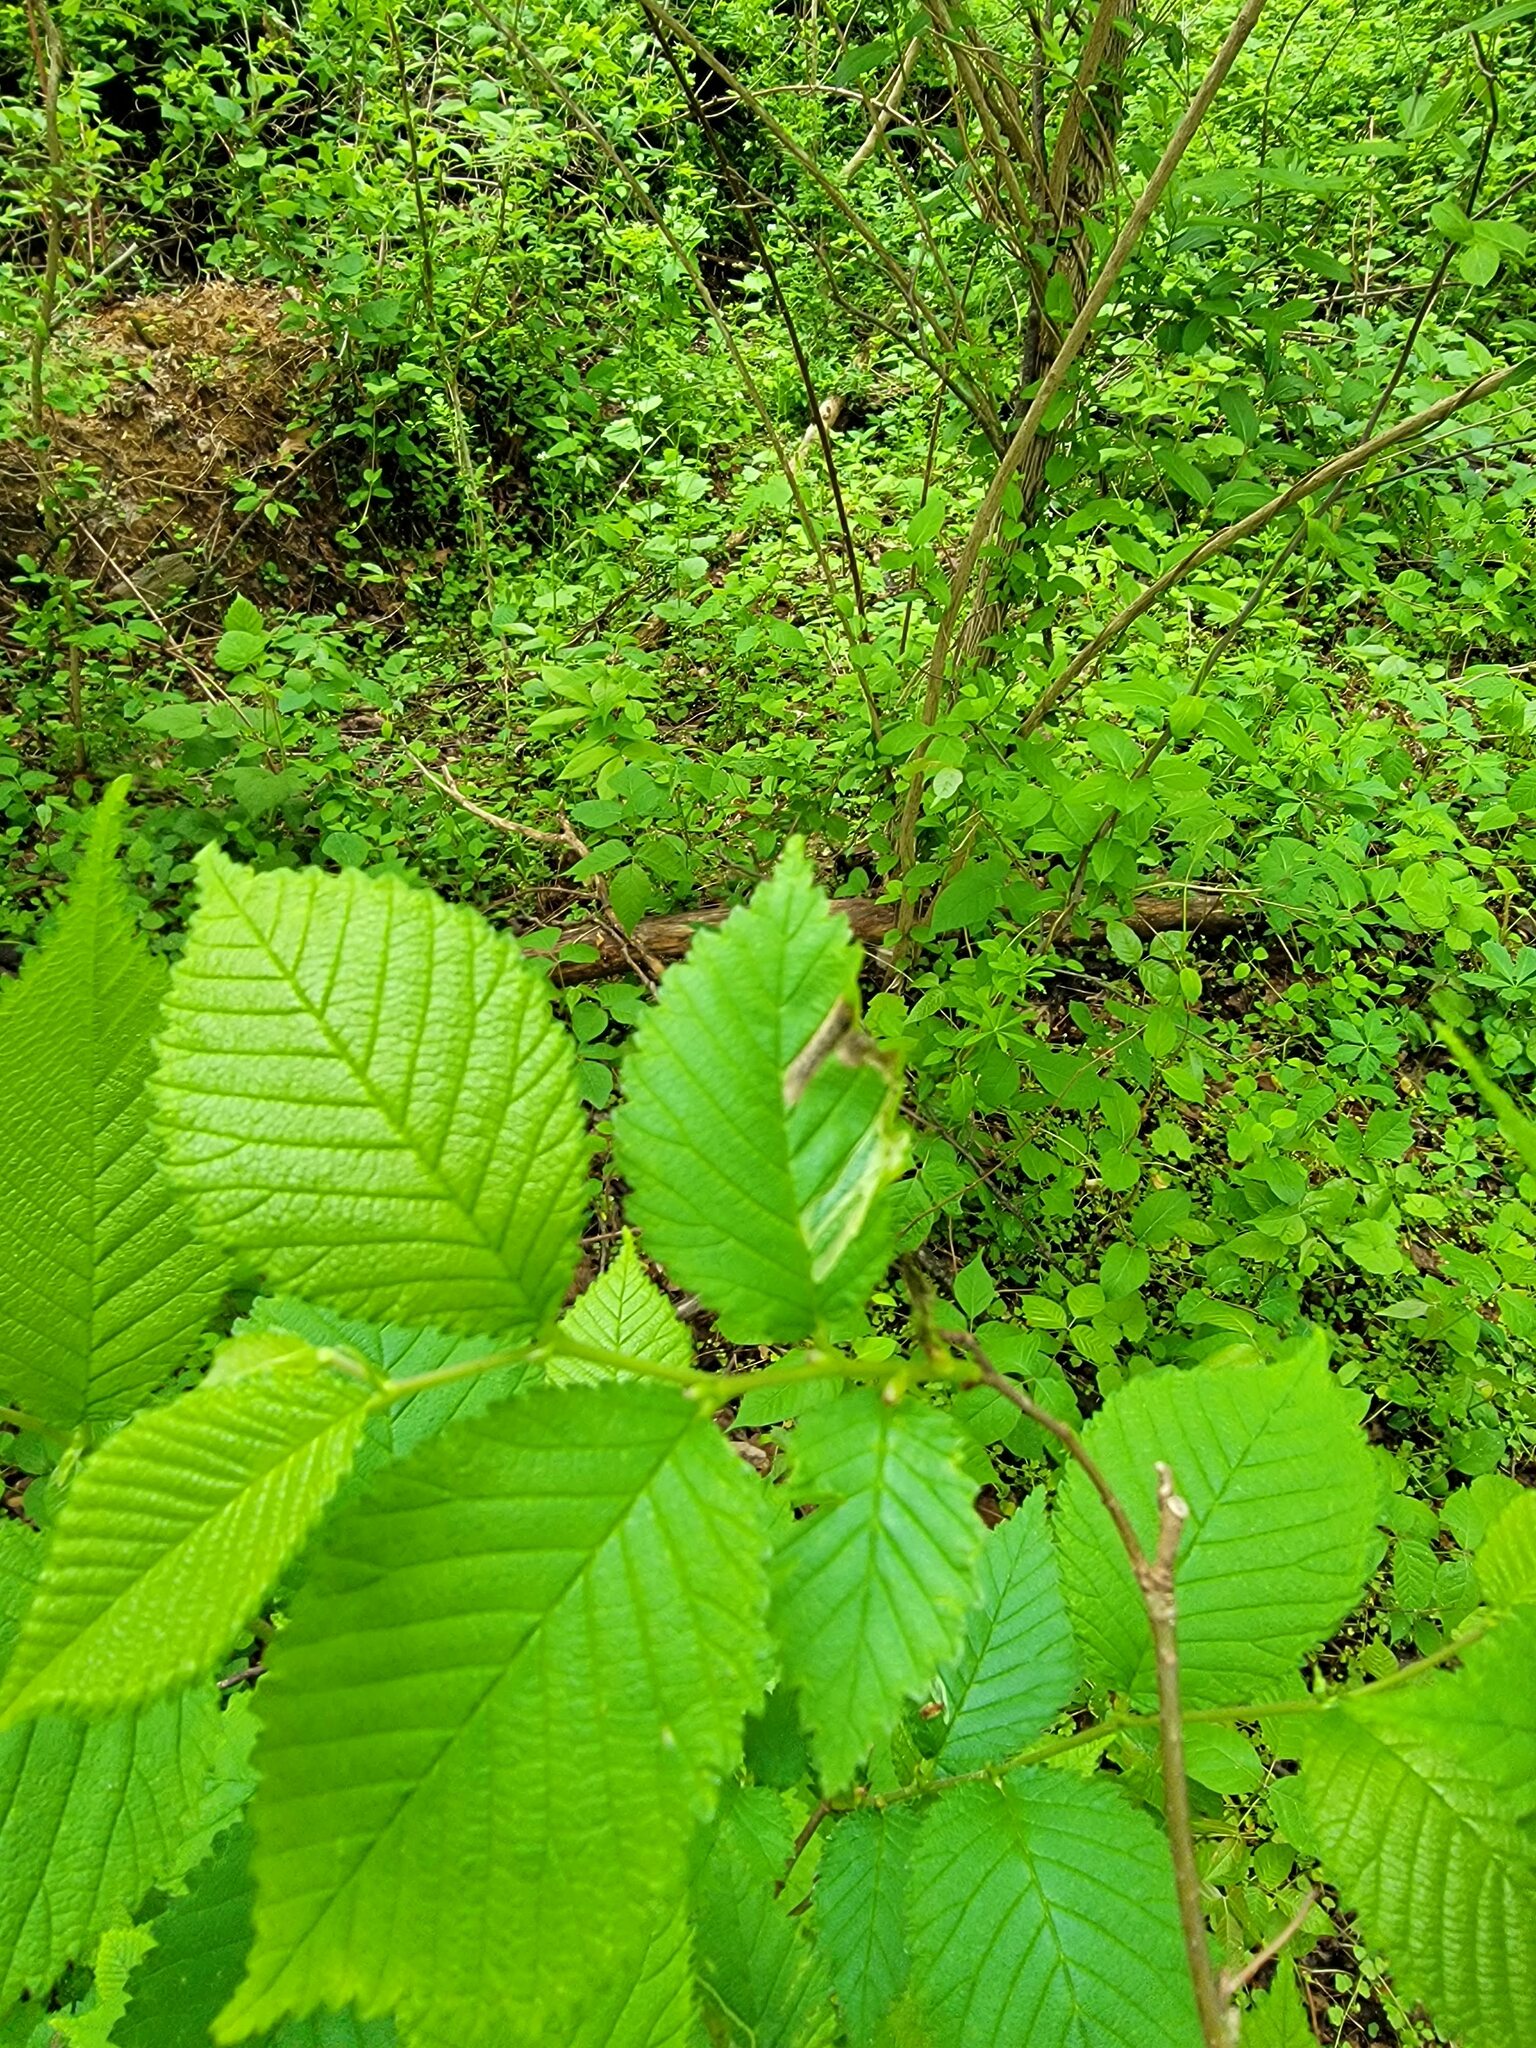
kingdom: Animalia
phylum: Arthropoda
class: Insecta
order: Diptera
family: Agromyzidae
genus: Agromyza
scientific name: Agromyza aristata
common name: Elm agromyzid leafminer
